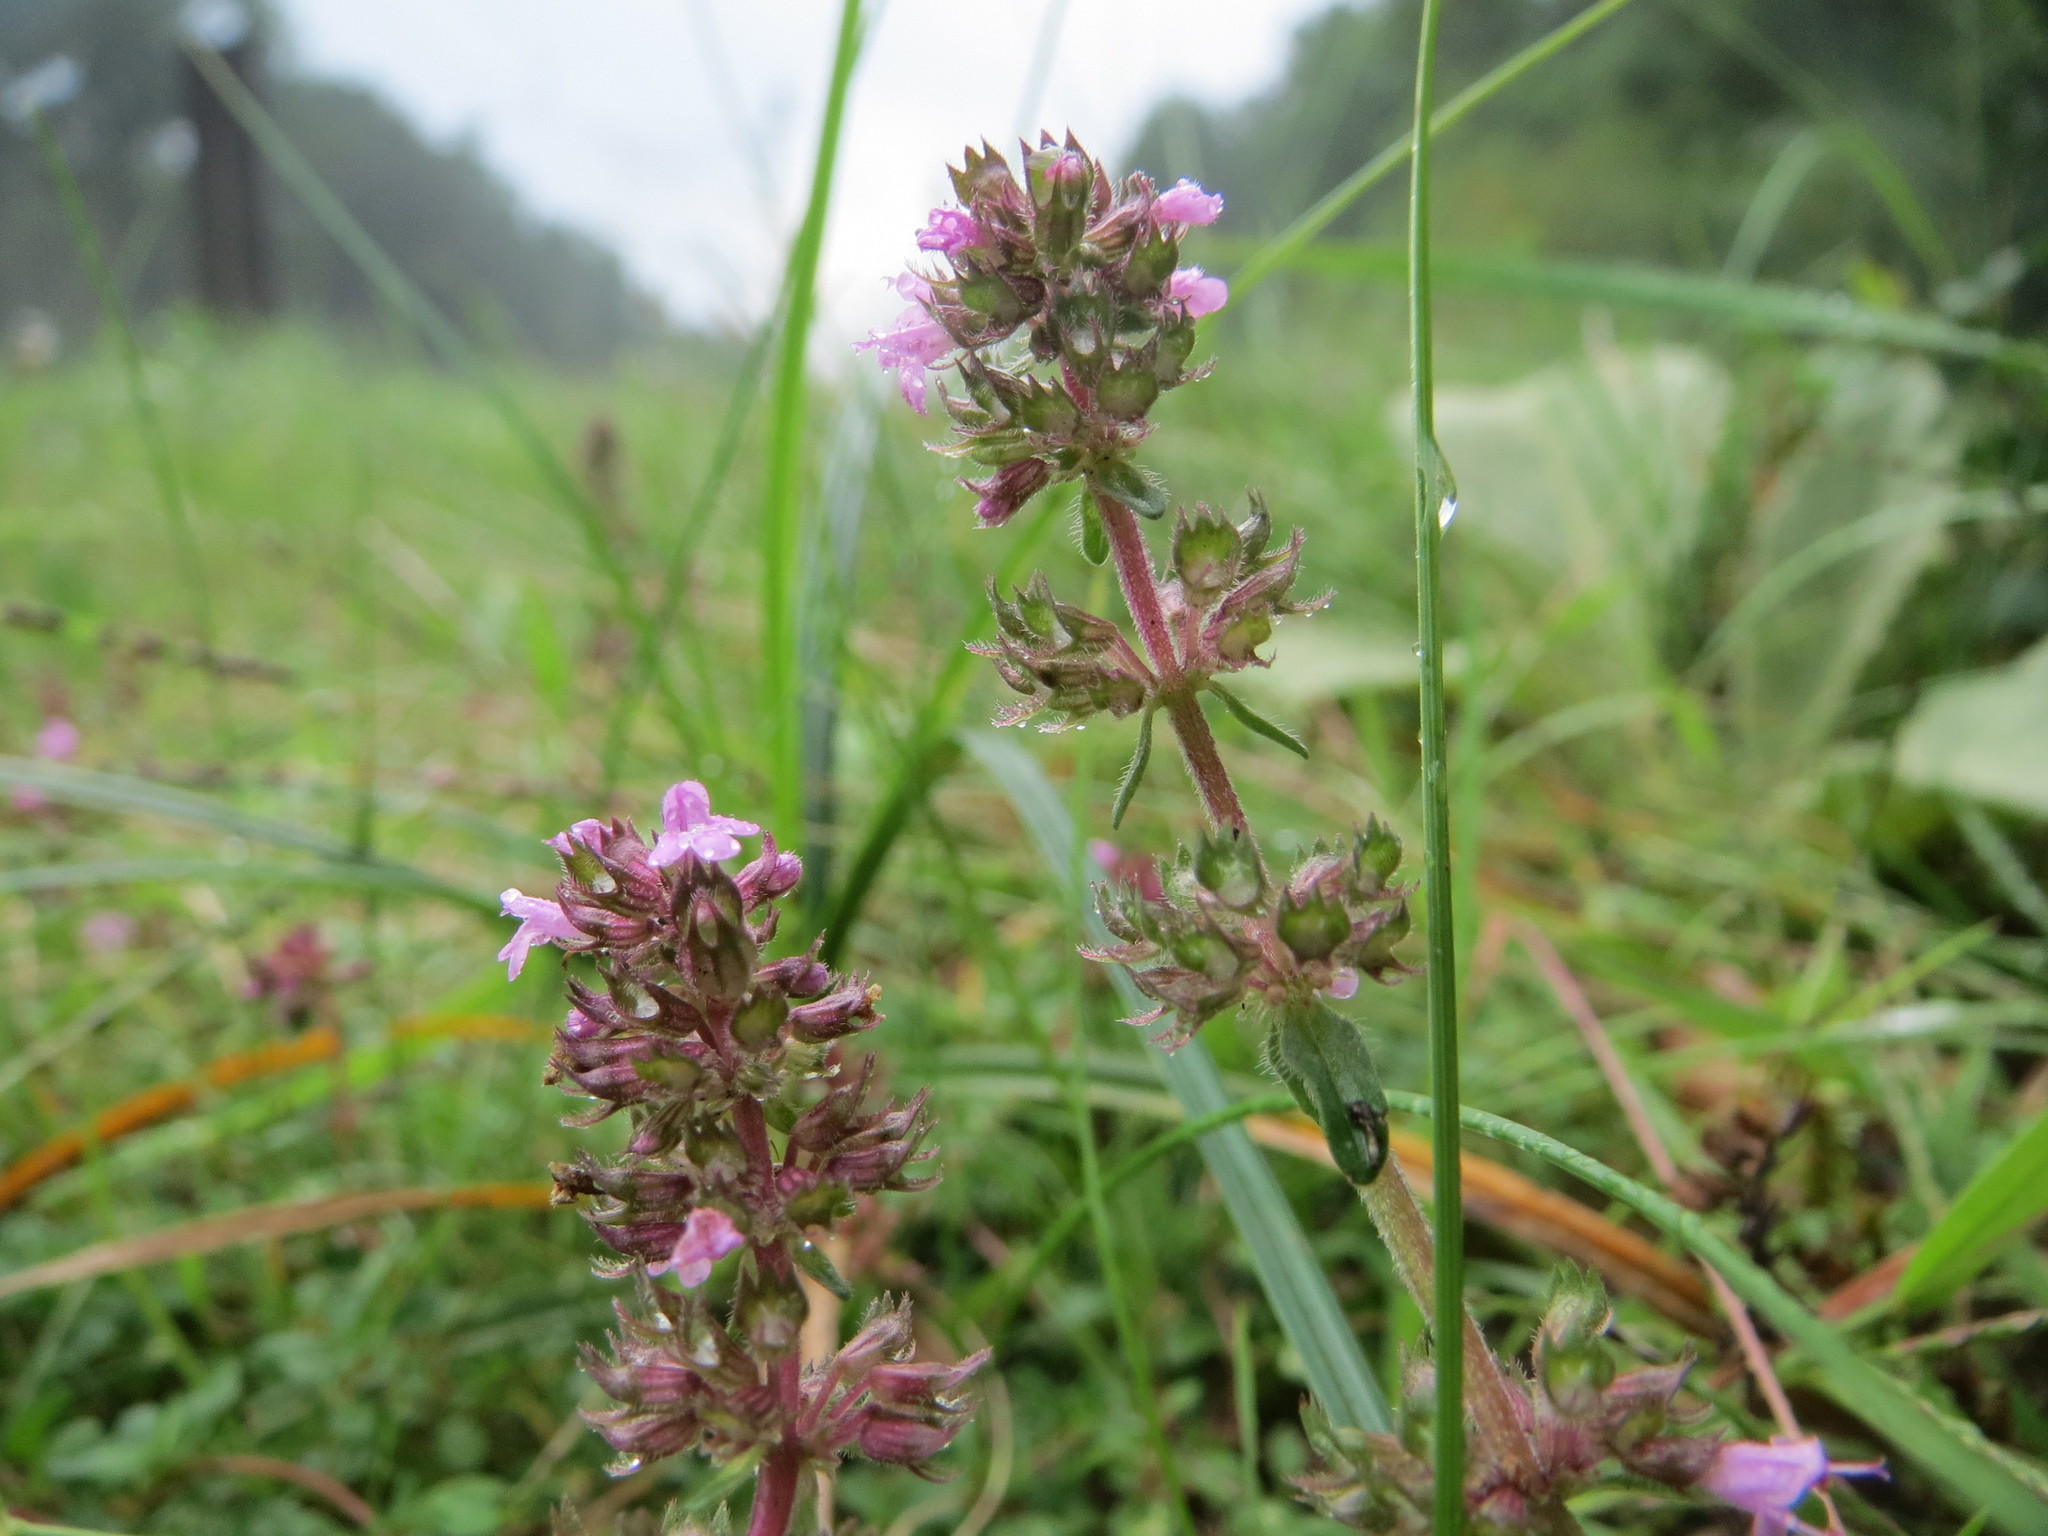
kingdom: Plantae
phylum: Tracheophyta
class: Magnoliopsida
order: Lamiales
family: Lamiaceae
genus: Thymus
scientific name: Thymus pulegioides
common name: Large thyme
